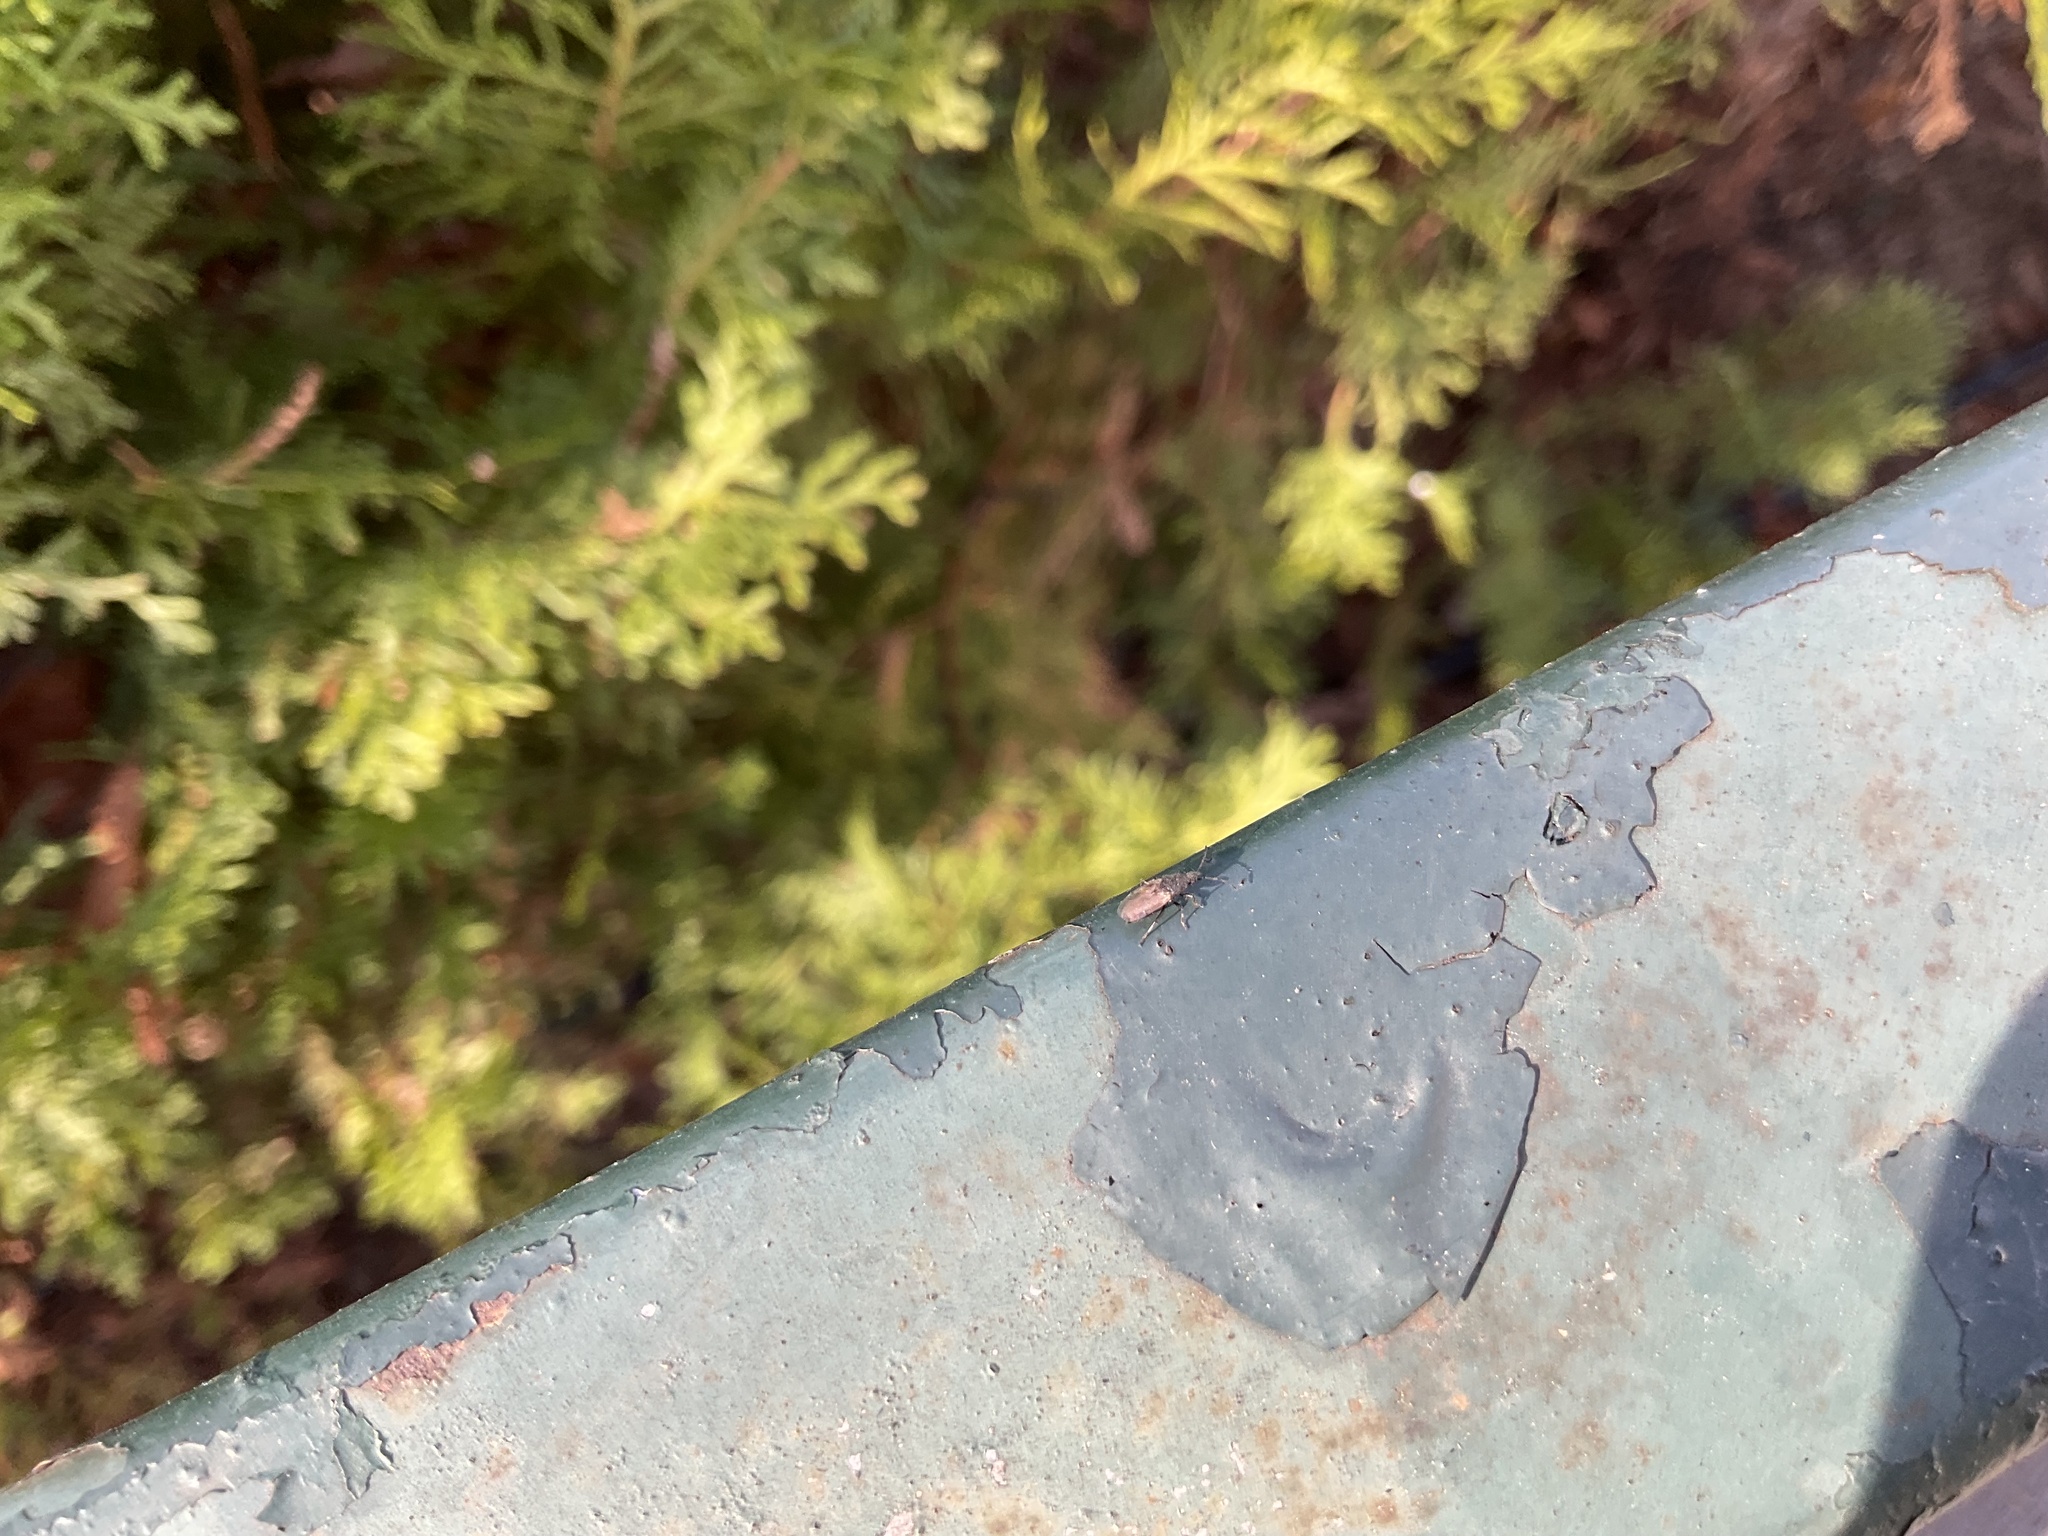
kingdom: Animalia
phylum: Arthropoda
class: Insecta
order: Hemiptera
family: Oxycarenidae
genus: Oxycarenus
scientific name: Oxycarenus hyalinipennis
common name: Cotton seed bug
